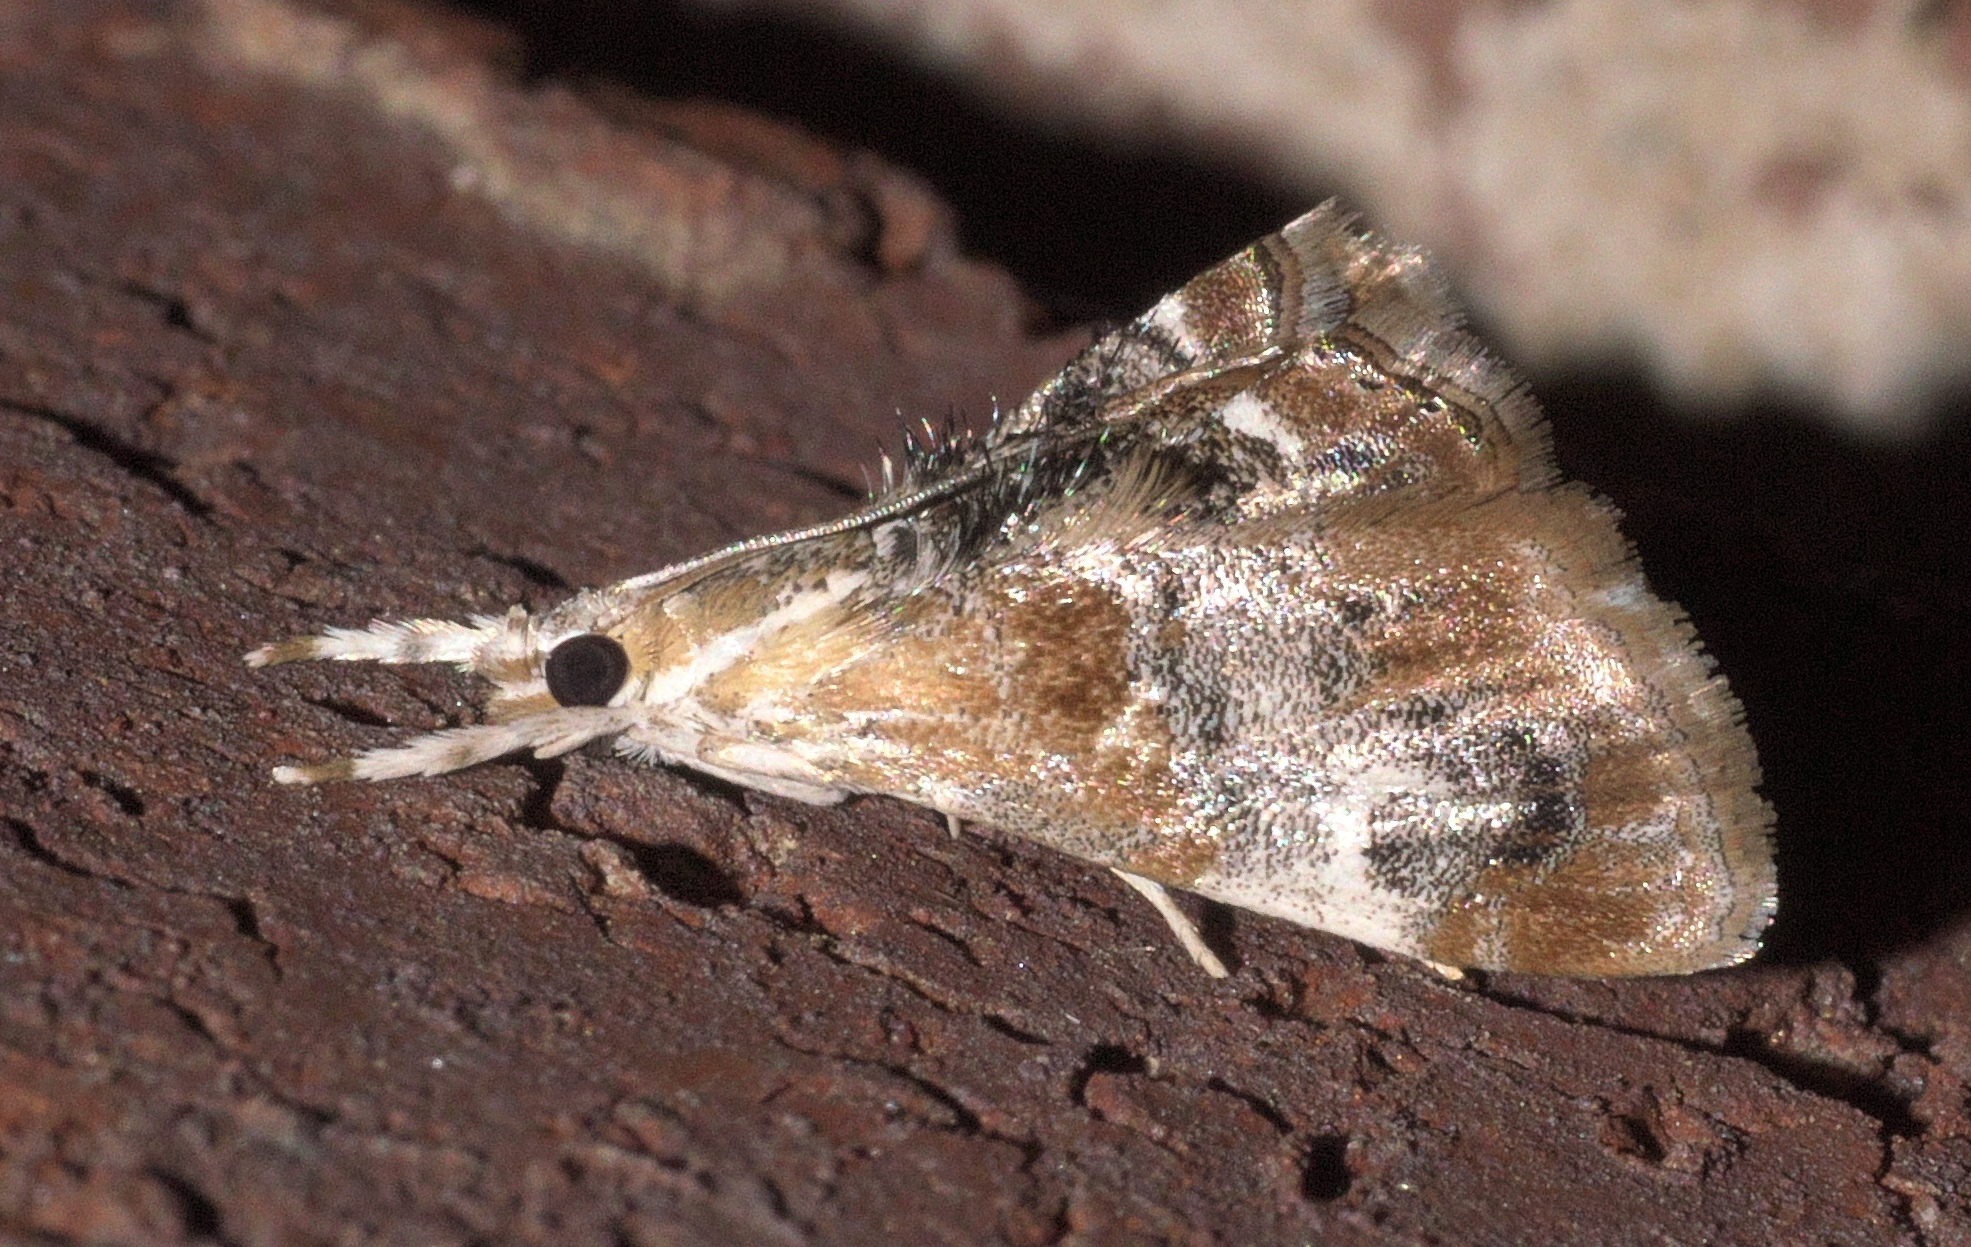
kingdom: Animalia
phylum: Arthropoda
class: Insecta
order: Lepidoptera
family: Crambidae
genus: Dicymolomia
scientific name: Dicymolomia julianalis
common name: Julia's dicymolomia moth
